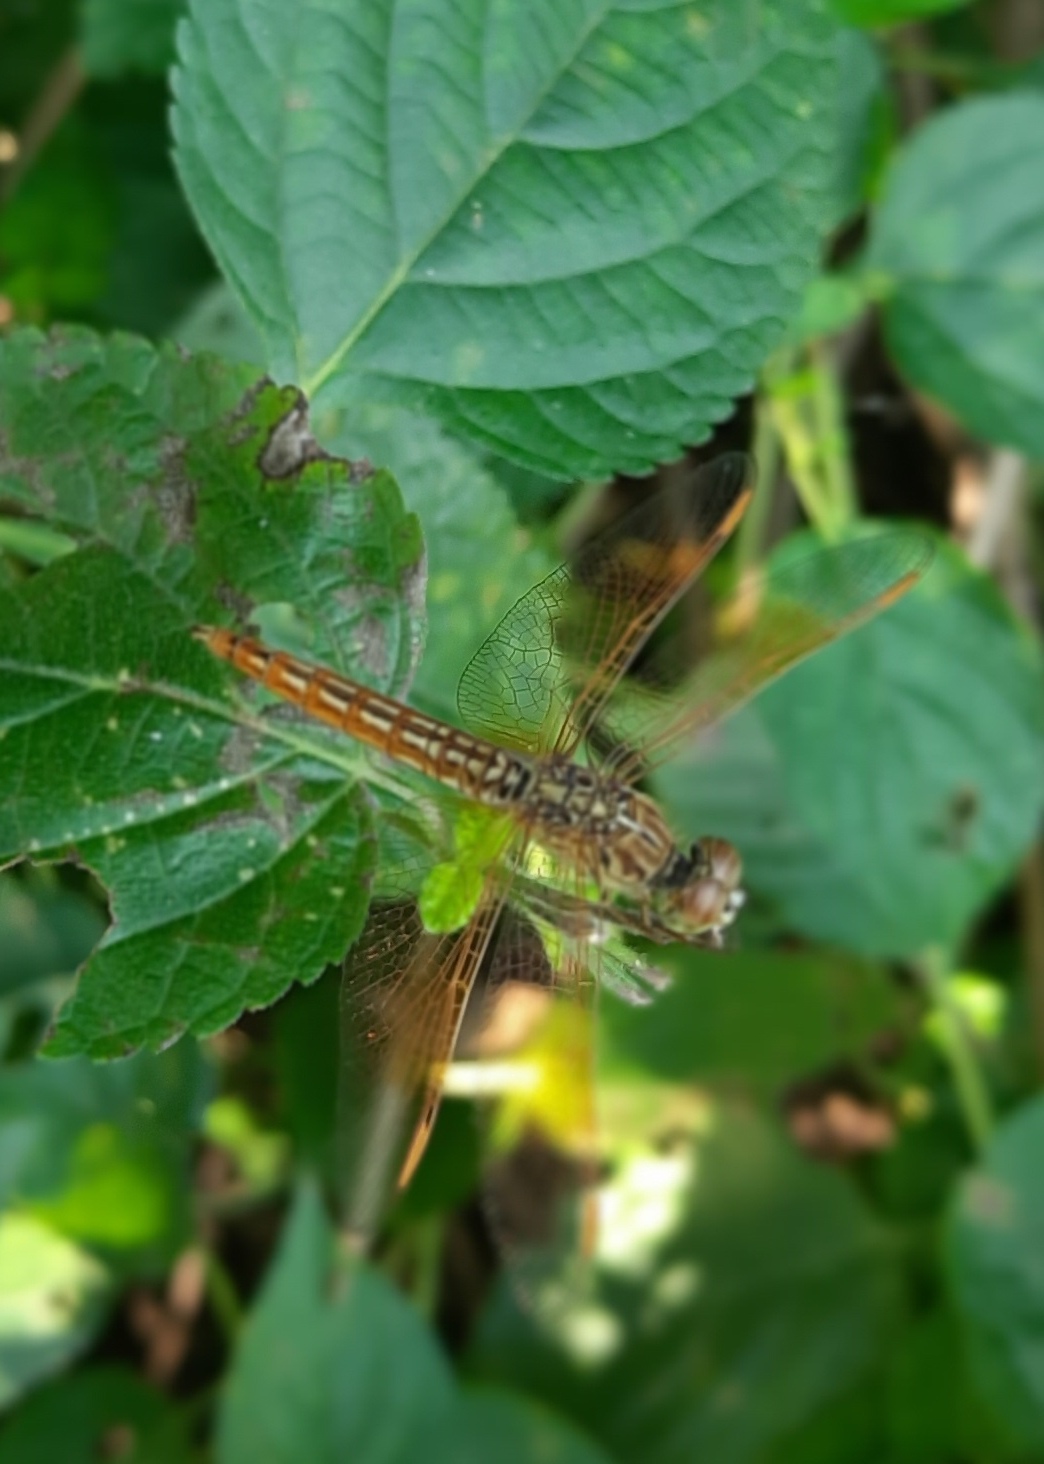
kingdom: Animalia
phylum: Arthropoda
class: Insecta
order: Odonata
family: Libellulidae
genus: Brachythemis
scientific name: Brachythemis contaminata
